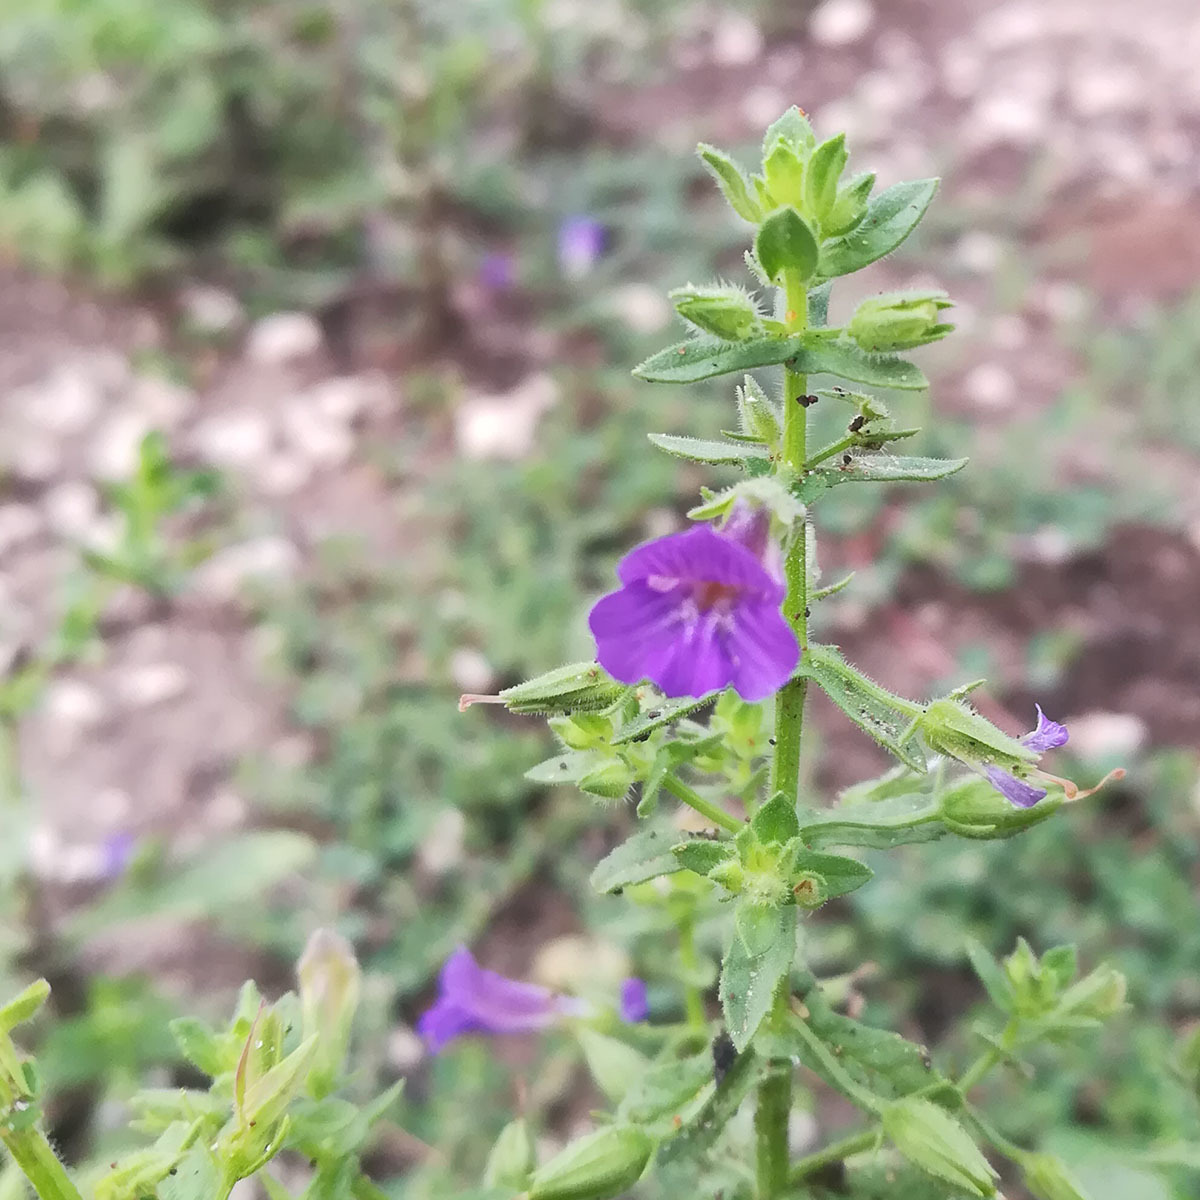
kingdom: Plantae
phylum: Tracheophyta
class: Magnoliopsida
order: Lamiales
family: Plantaginaceae
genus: Stemodia
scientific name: Stemodia viscosa
